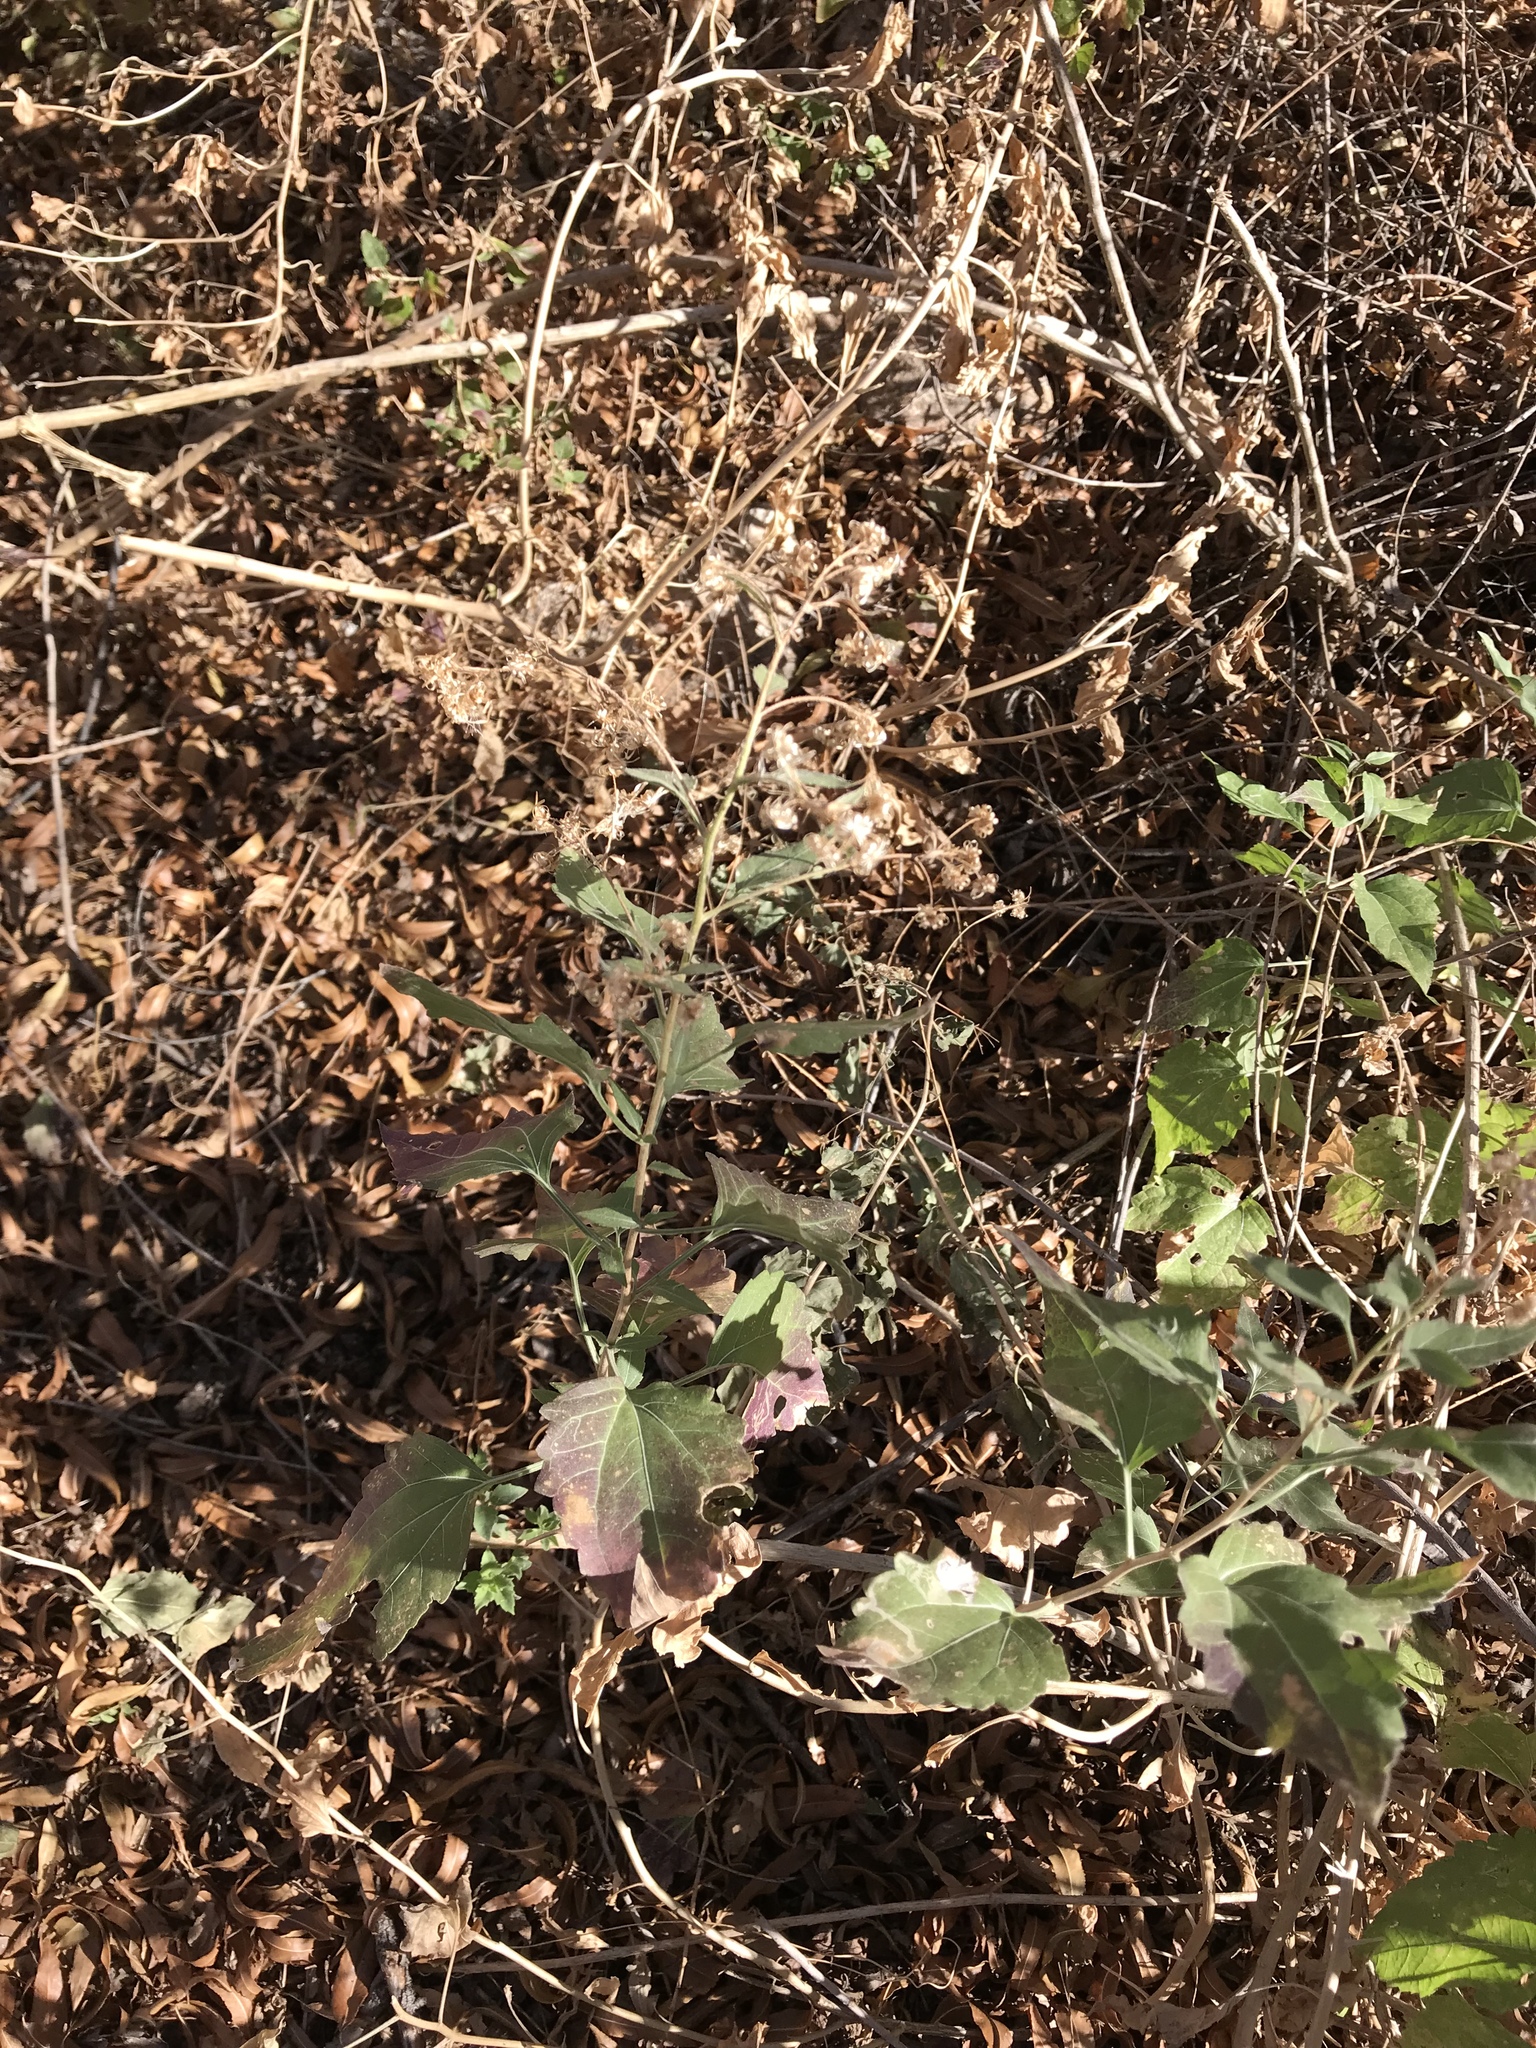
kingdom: Plantae
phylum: Tracheophyta
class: Magnoliopsida
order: Asterales
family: Asteraceae
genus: Brickellia
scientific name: Brickellia coulteri
